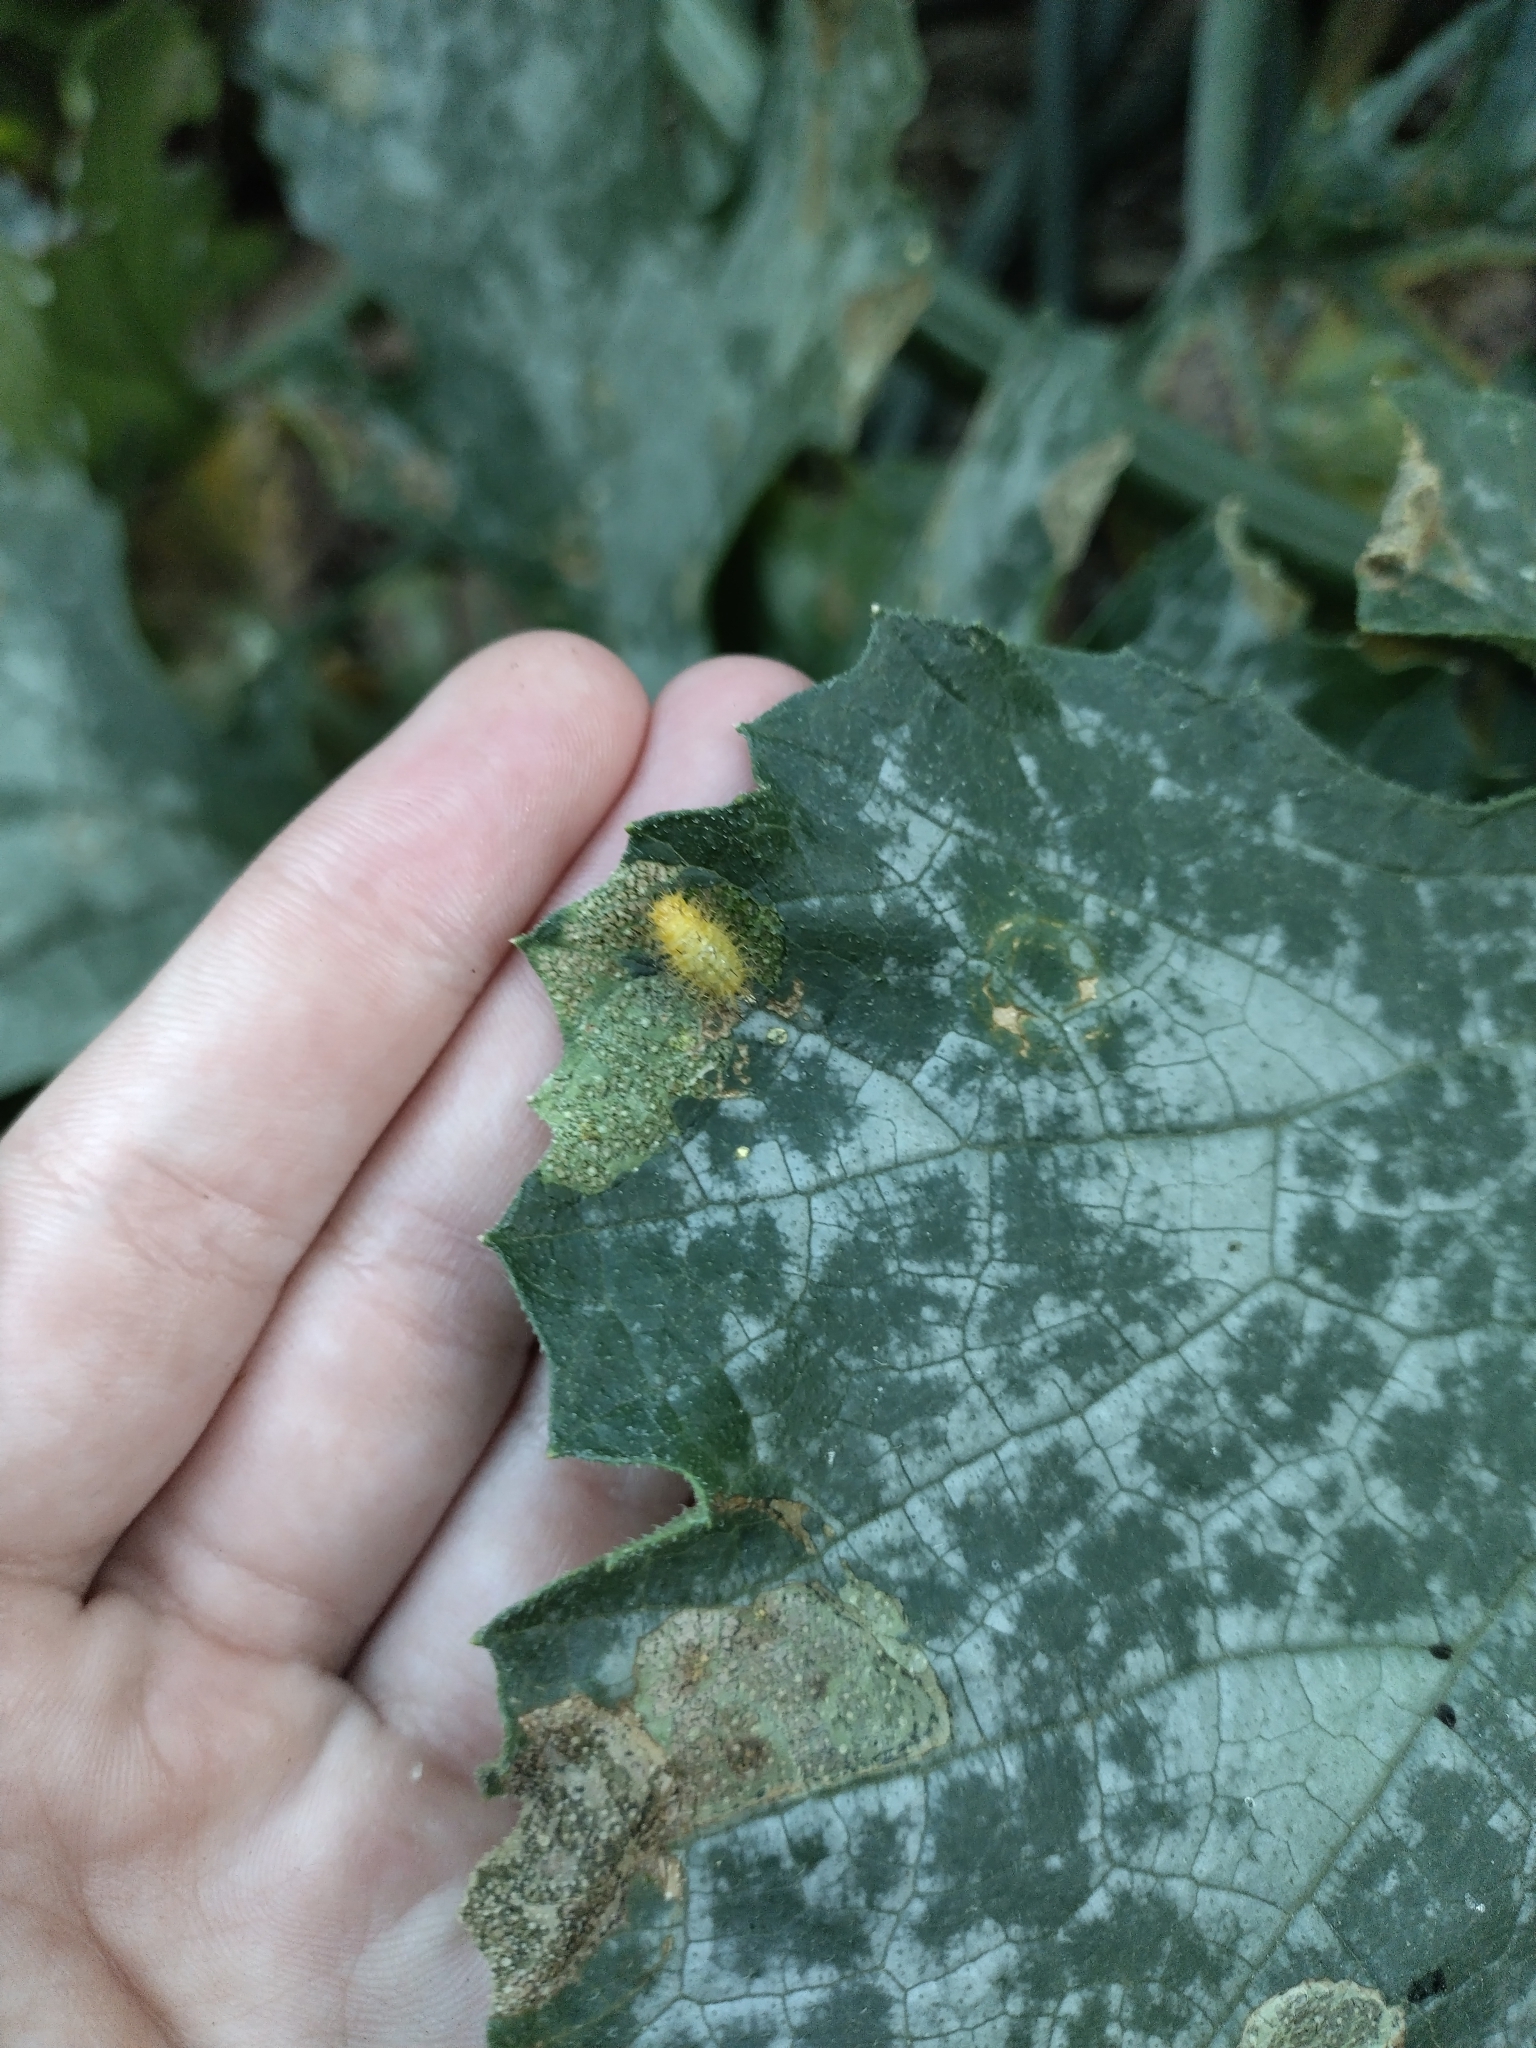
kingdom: Animalia
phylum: Arthropoda
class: Insecta
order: Coleoptera
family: Coccinellidae
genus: Henosepilachna
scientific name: Henosepilachna sumbana
